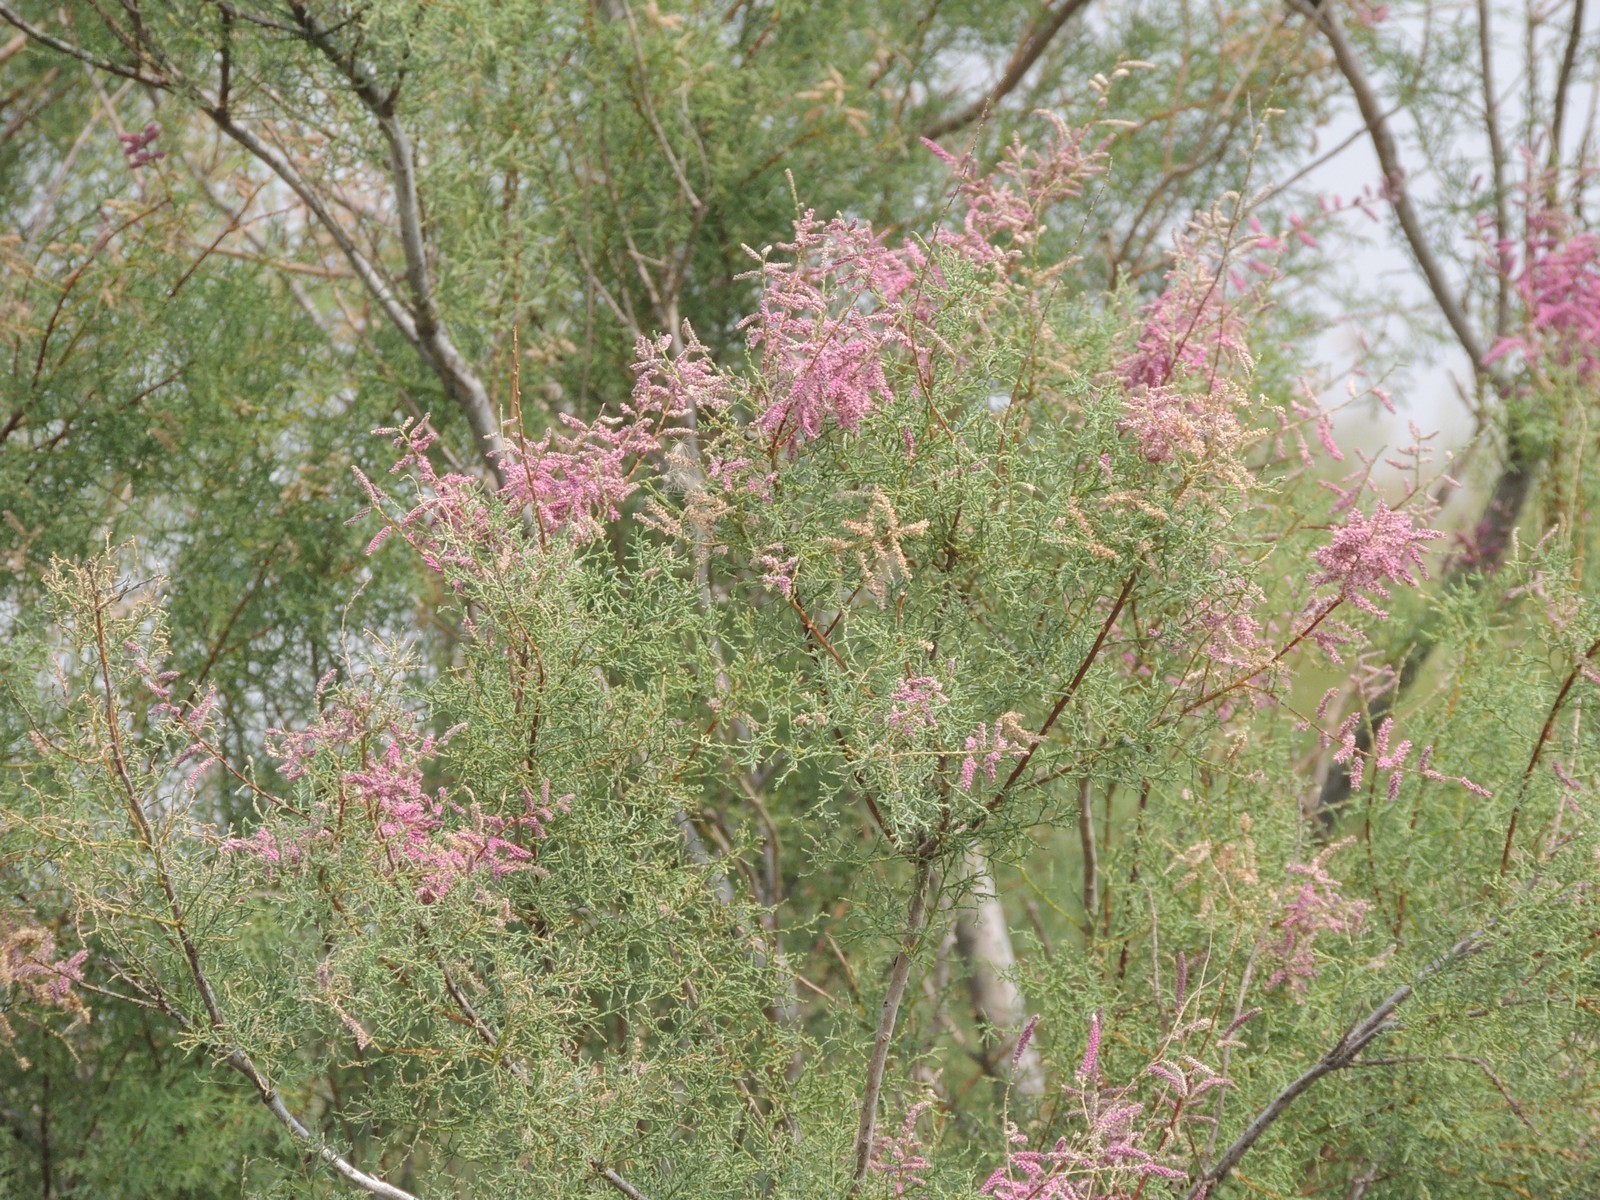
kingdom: Plantae
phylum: Tracheophyta
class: Magnoliopsida
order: Caryophyllales
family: Tamaricaceae
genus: Tamarix
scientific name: Tamarix ramosissima
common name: Pink tamarisk
